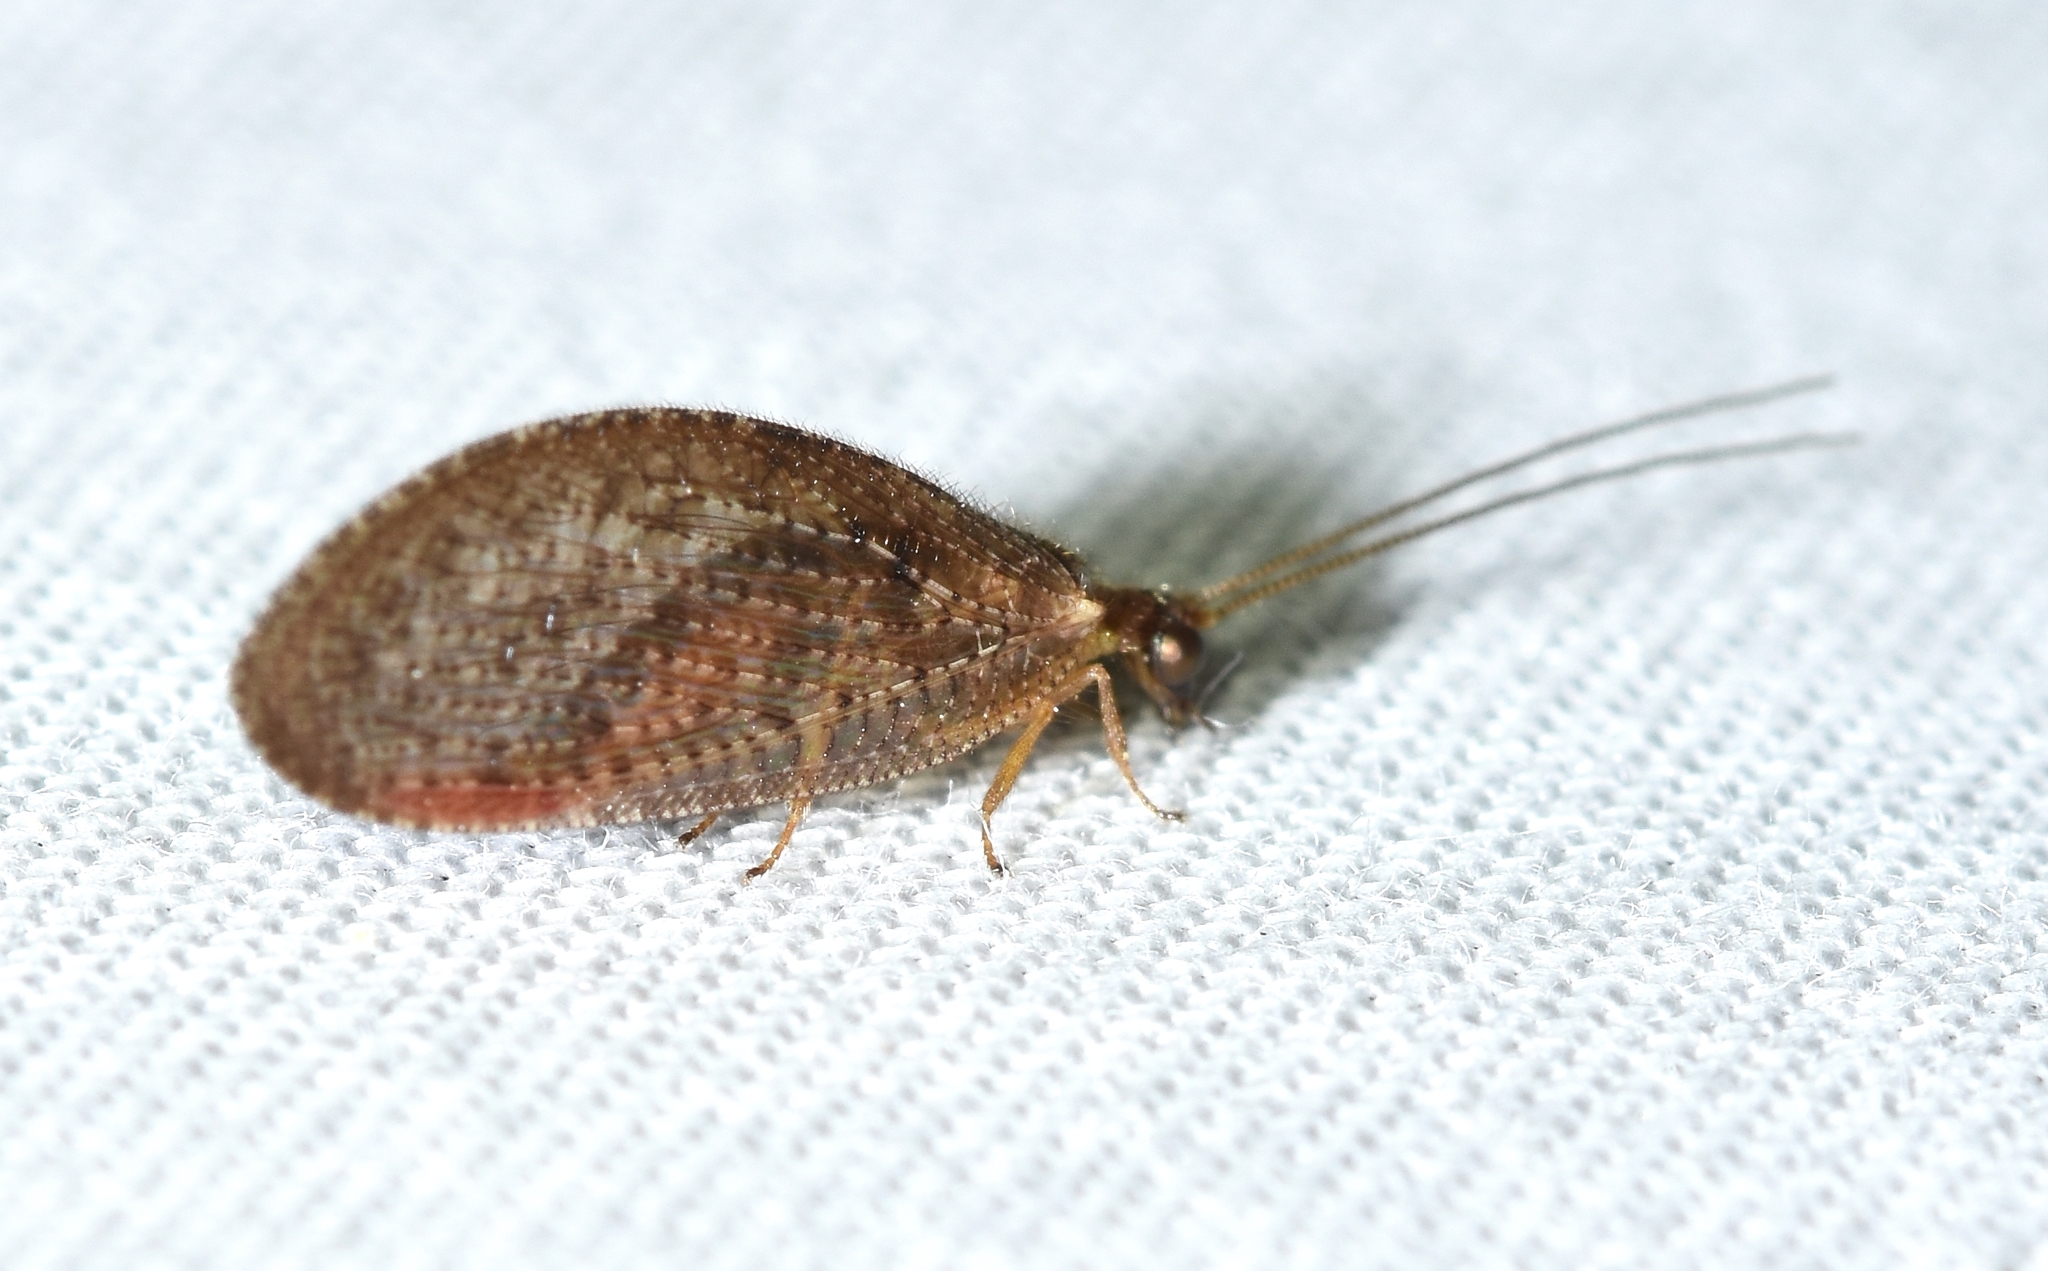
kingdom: Animalia
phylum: Arthropoda
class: Insecta
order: Neuroptera
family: Hemerobiidae
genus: Hemerobius
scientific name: Hemerobius stigma
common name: Brown pine lacewing
